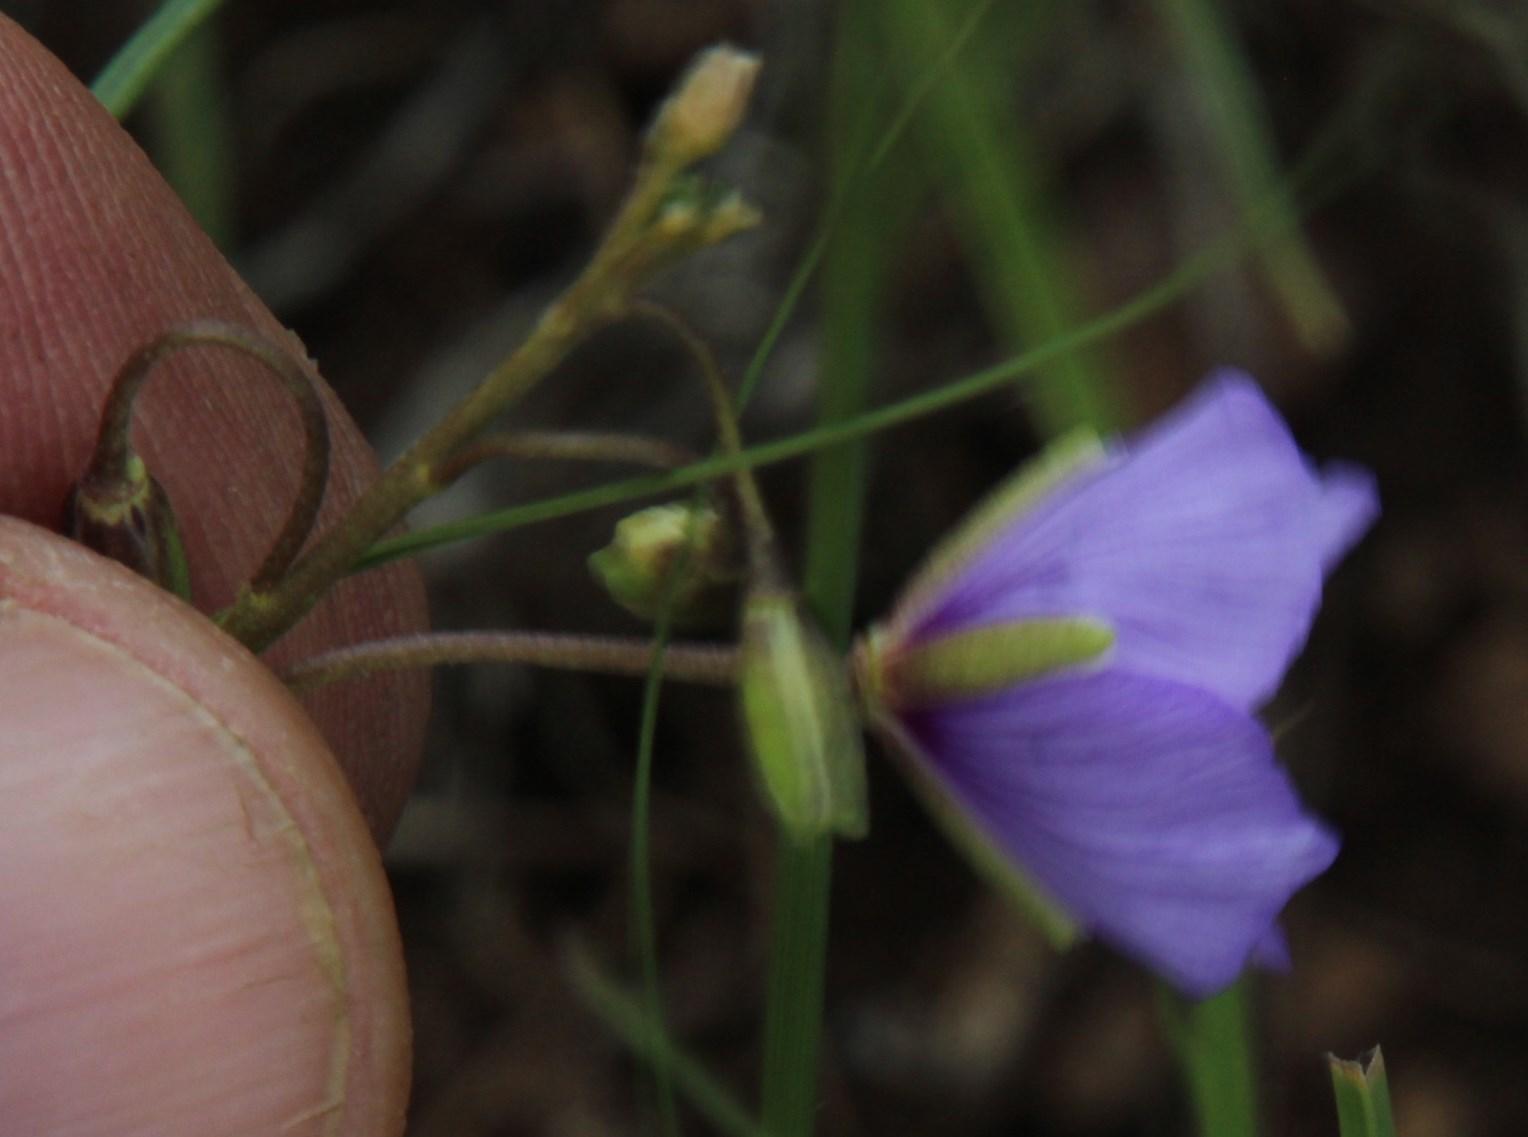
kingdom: Plantae
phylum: Tracheophyta
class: Magnoliopsida
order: Brassicales
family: Brassicaceae
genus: Heliophila
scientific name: Heliophila suavissima
